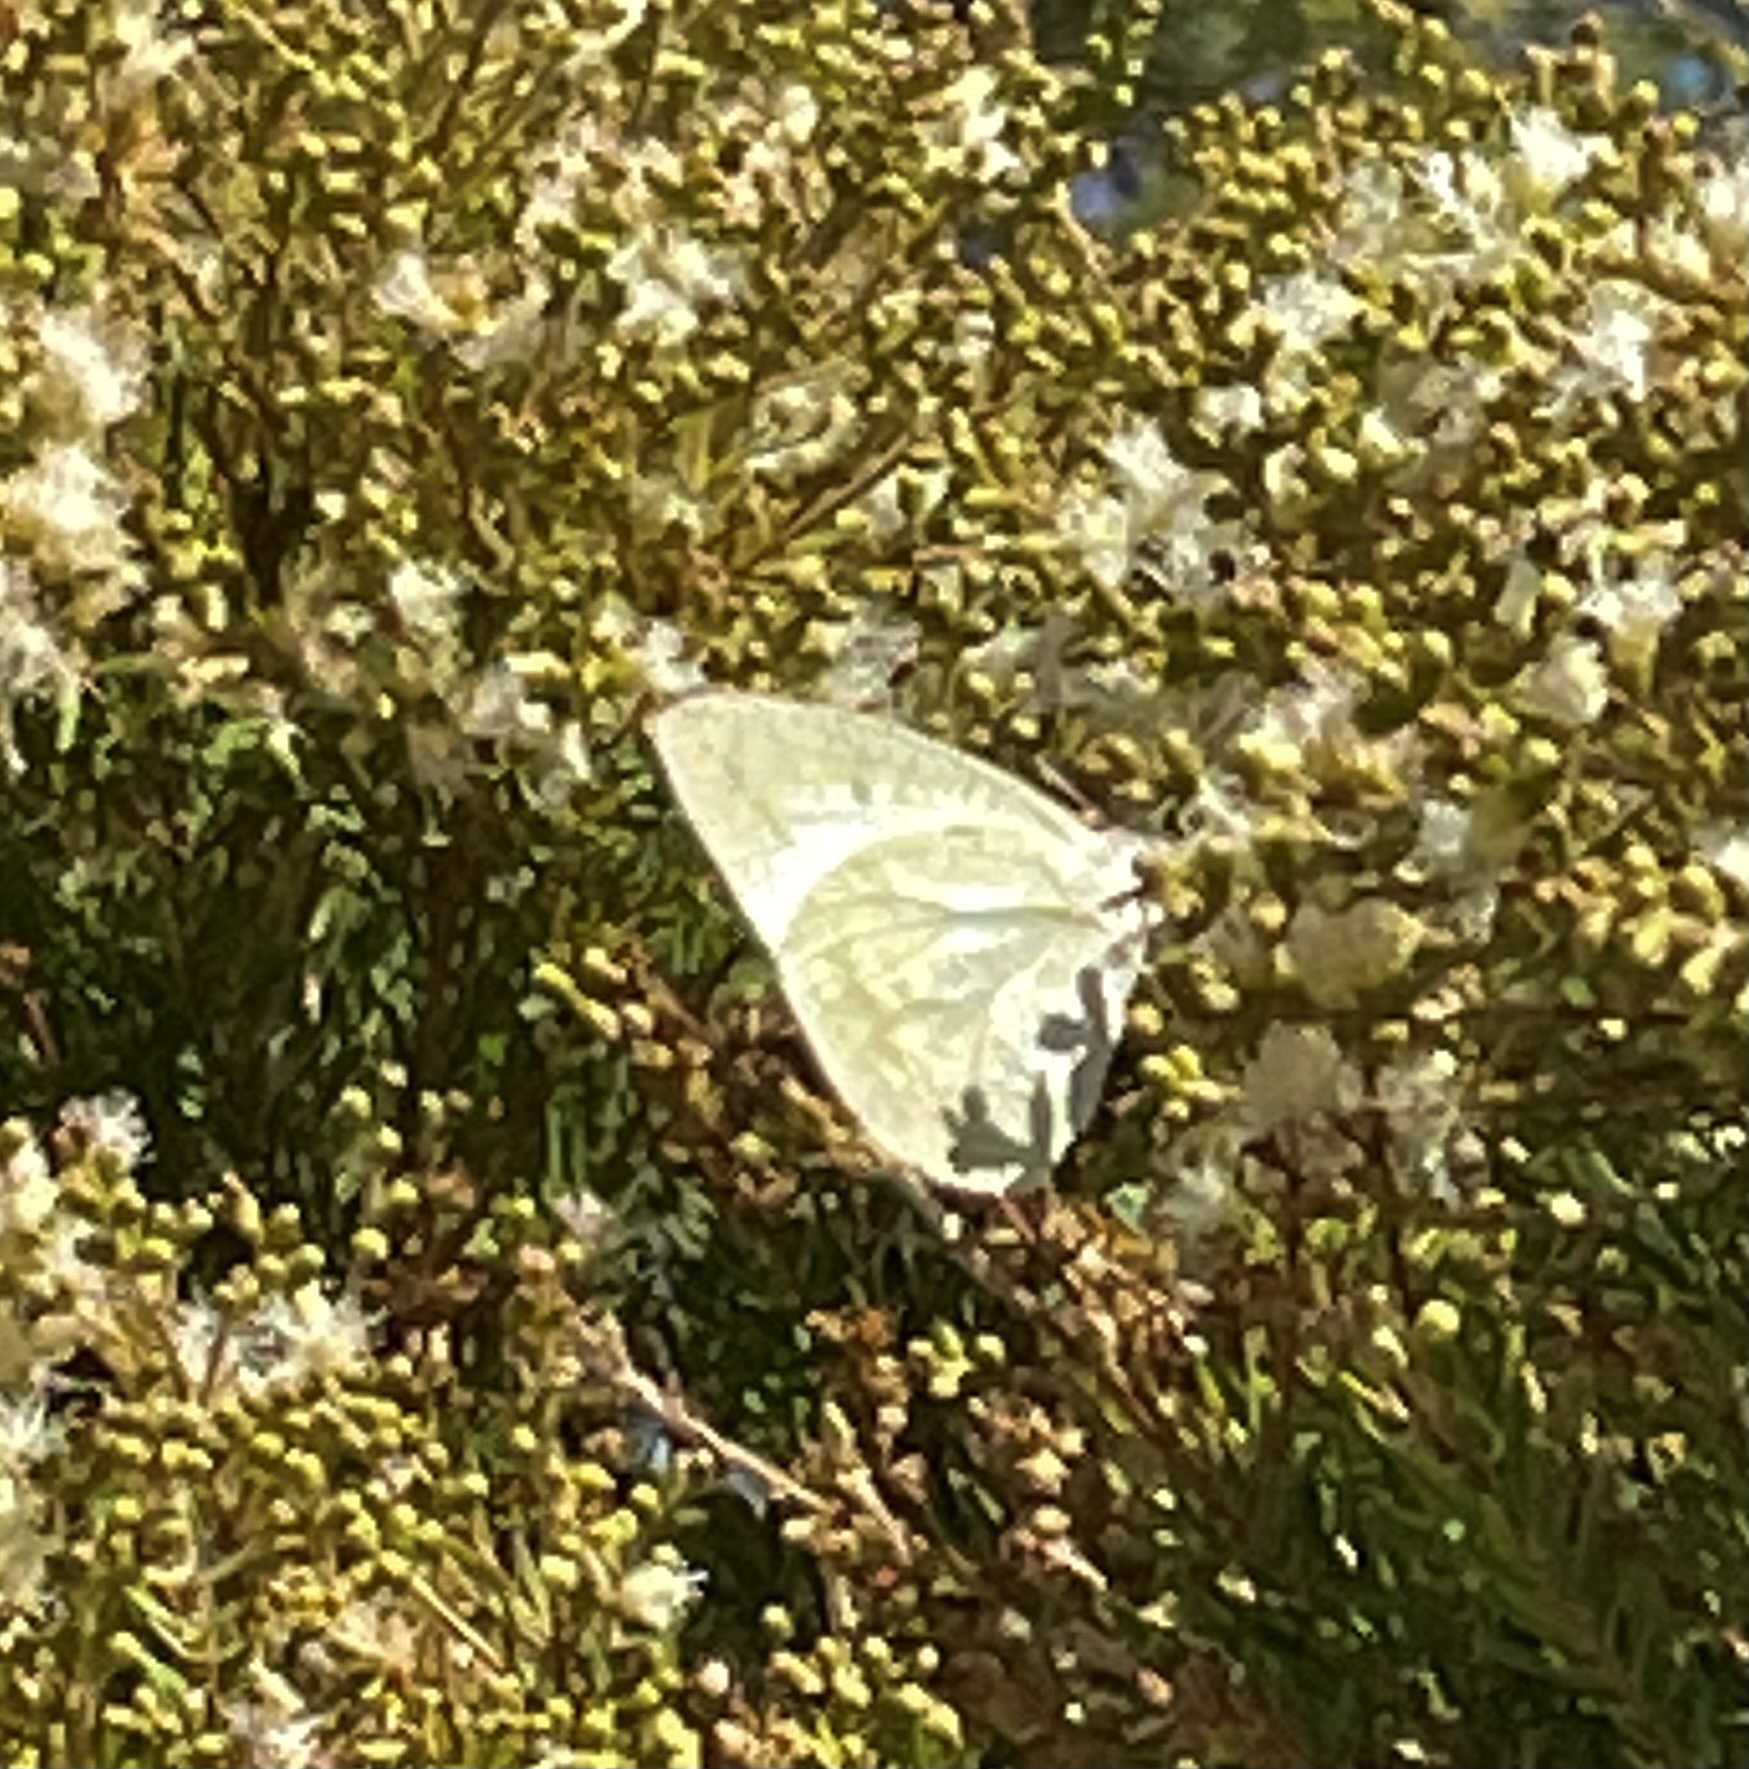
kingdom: Animalia
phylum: Arthropoda
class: Insecta
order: Lepidoptera
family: Pieridae
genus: Catopsilia
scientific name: Catopsilia pyranthe
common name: Mottled emigrant
